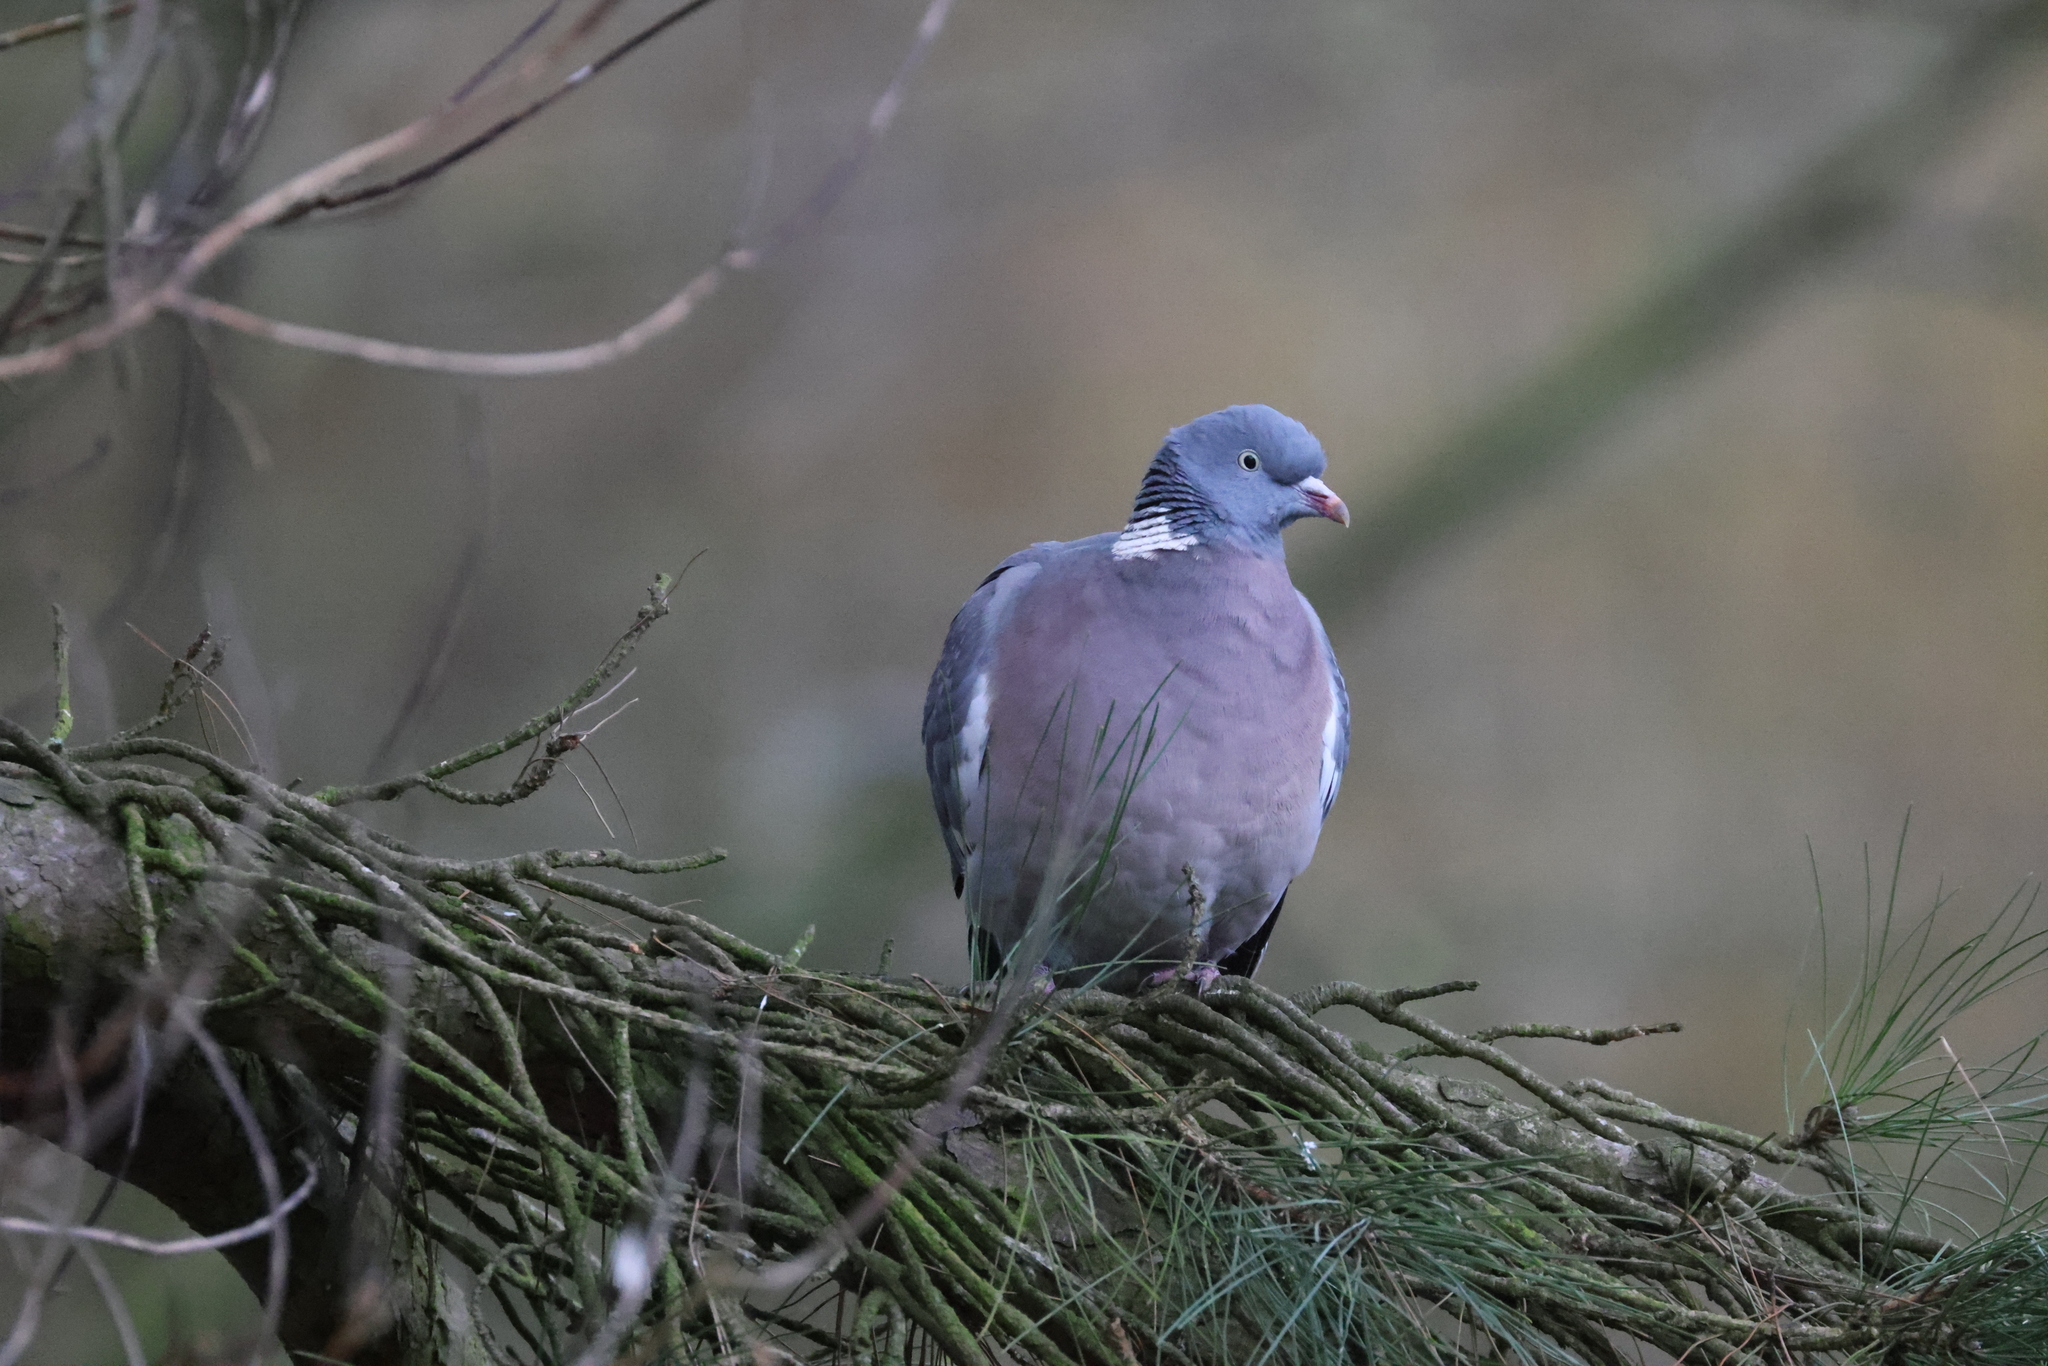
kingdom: Animalia
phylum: Chordata
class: Aves
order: Columbiformes
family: Columbidae
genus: Columba
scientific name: Columba palumbus
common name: Common wood pigeon
